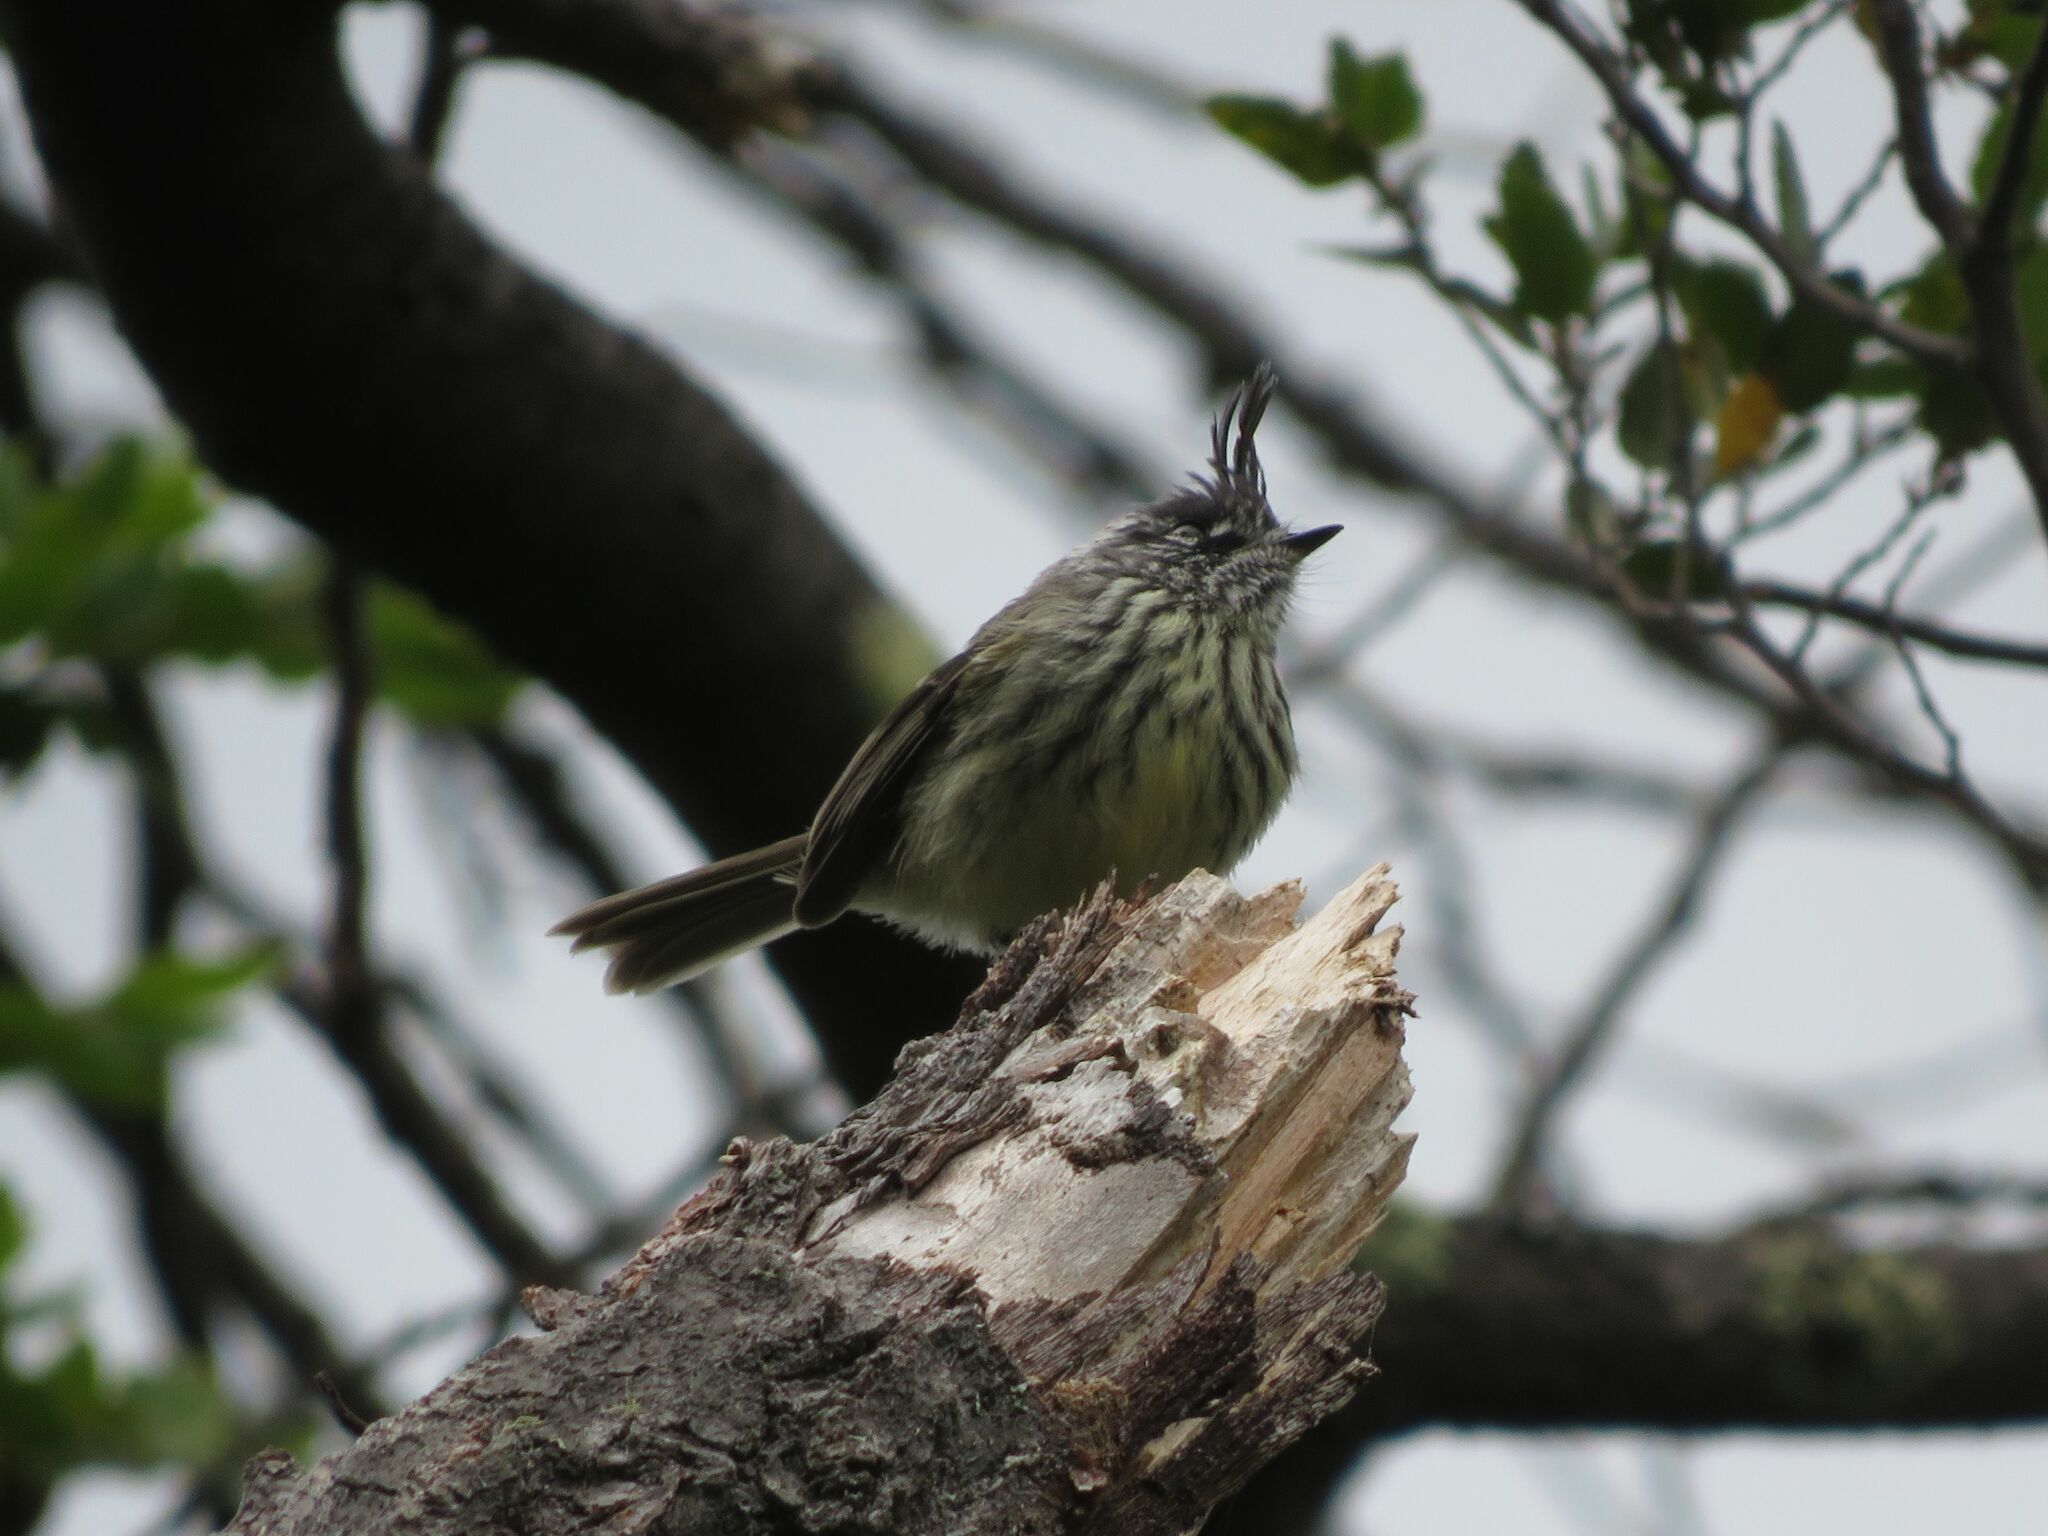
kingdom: Animalia
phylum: Chordata
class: Aves
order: Passeriformes
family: Tyrannidae
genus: Anairetes
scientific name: Anairetes parulus
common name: Tufted tit-tyrant
